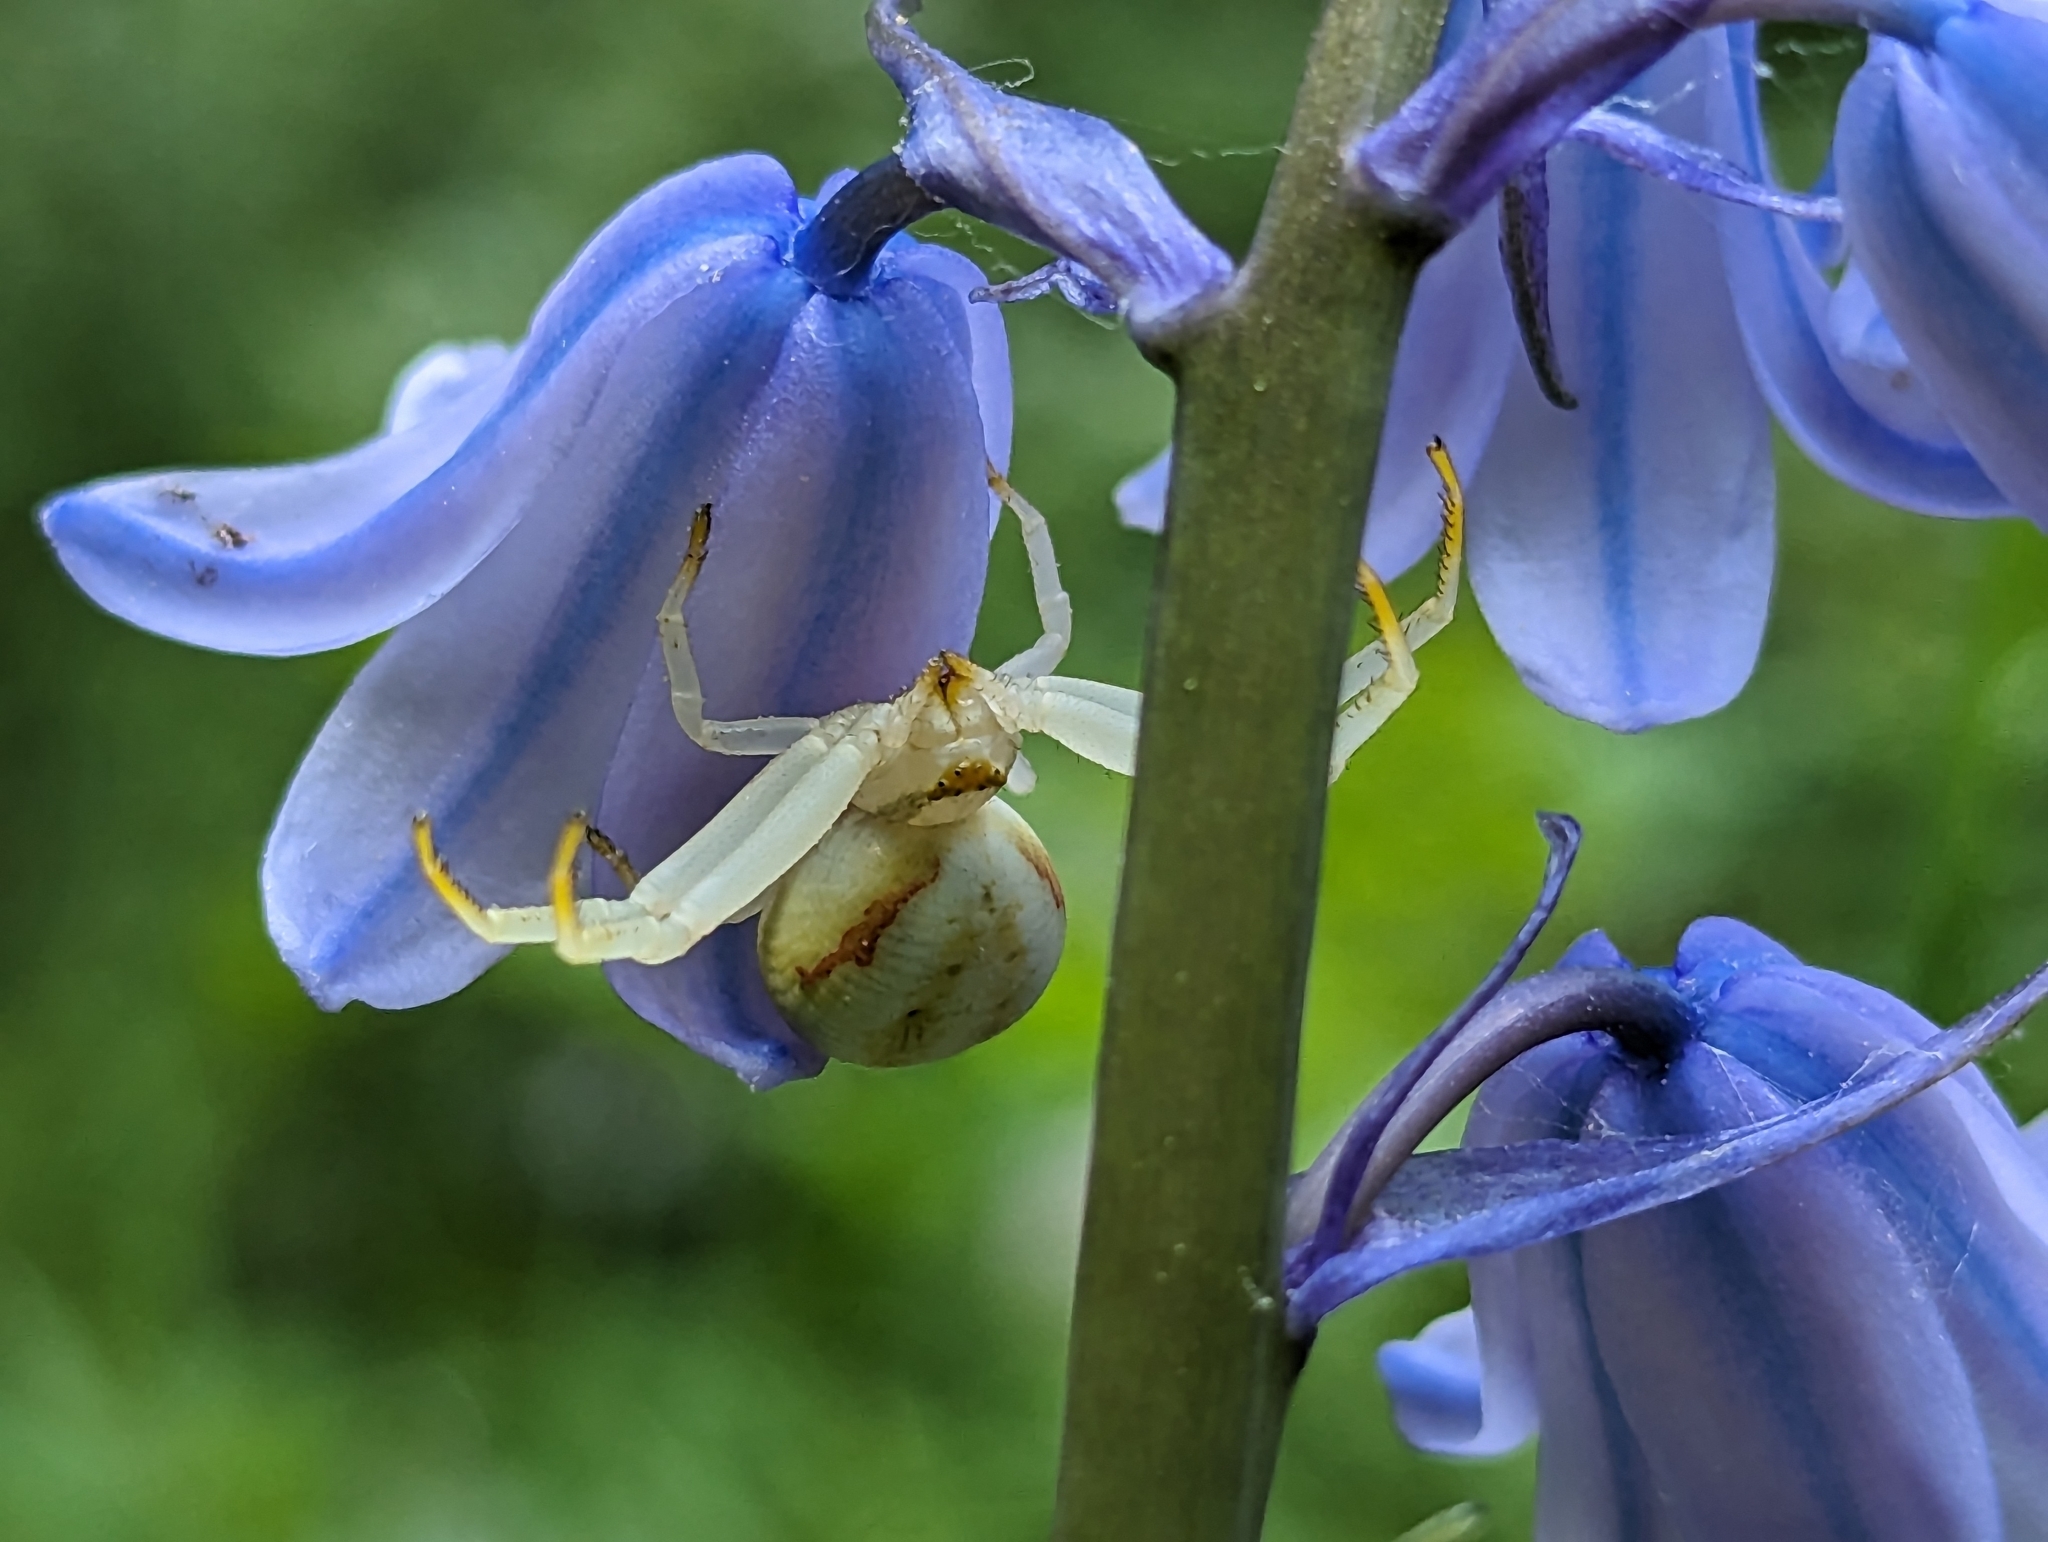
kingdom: Animalia
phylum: Arthropoda
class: Arachnida
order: Araneae
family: Thomisidae
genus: Misumena
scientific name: Misumena vatia
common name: Goldenrod crab spider
